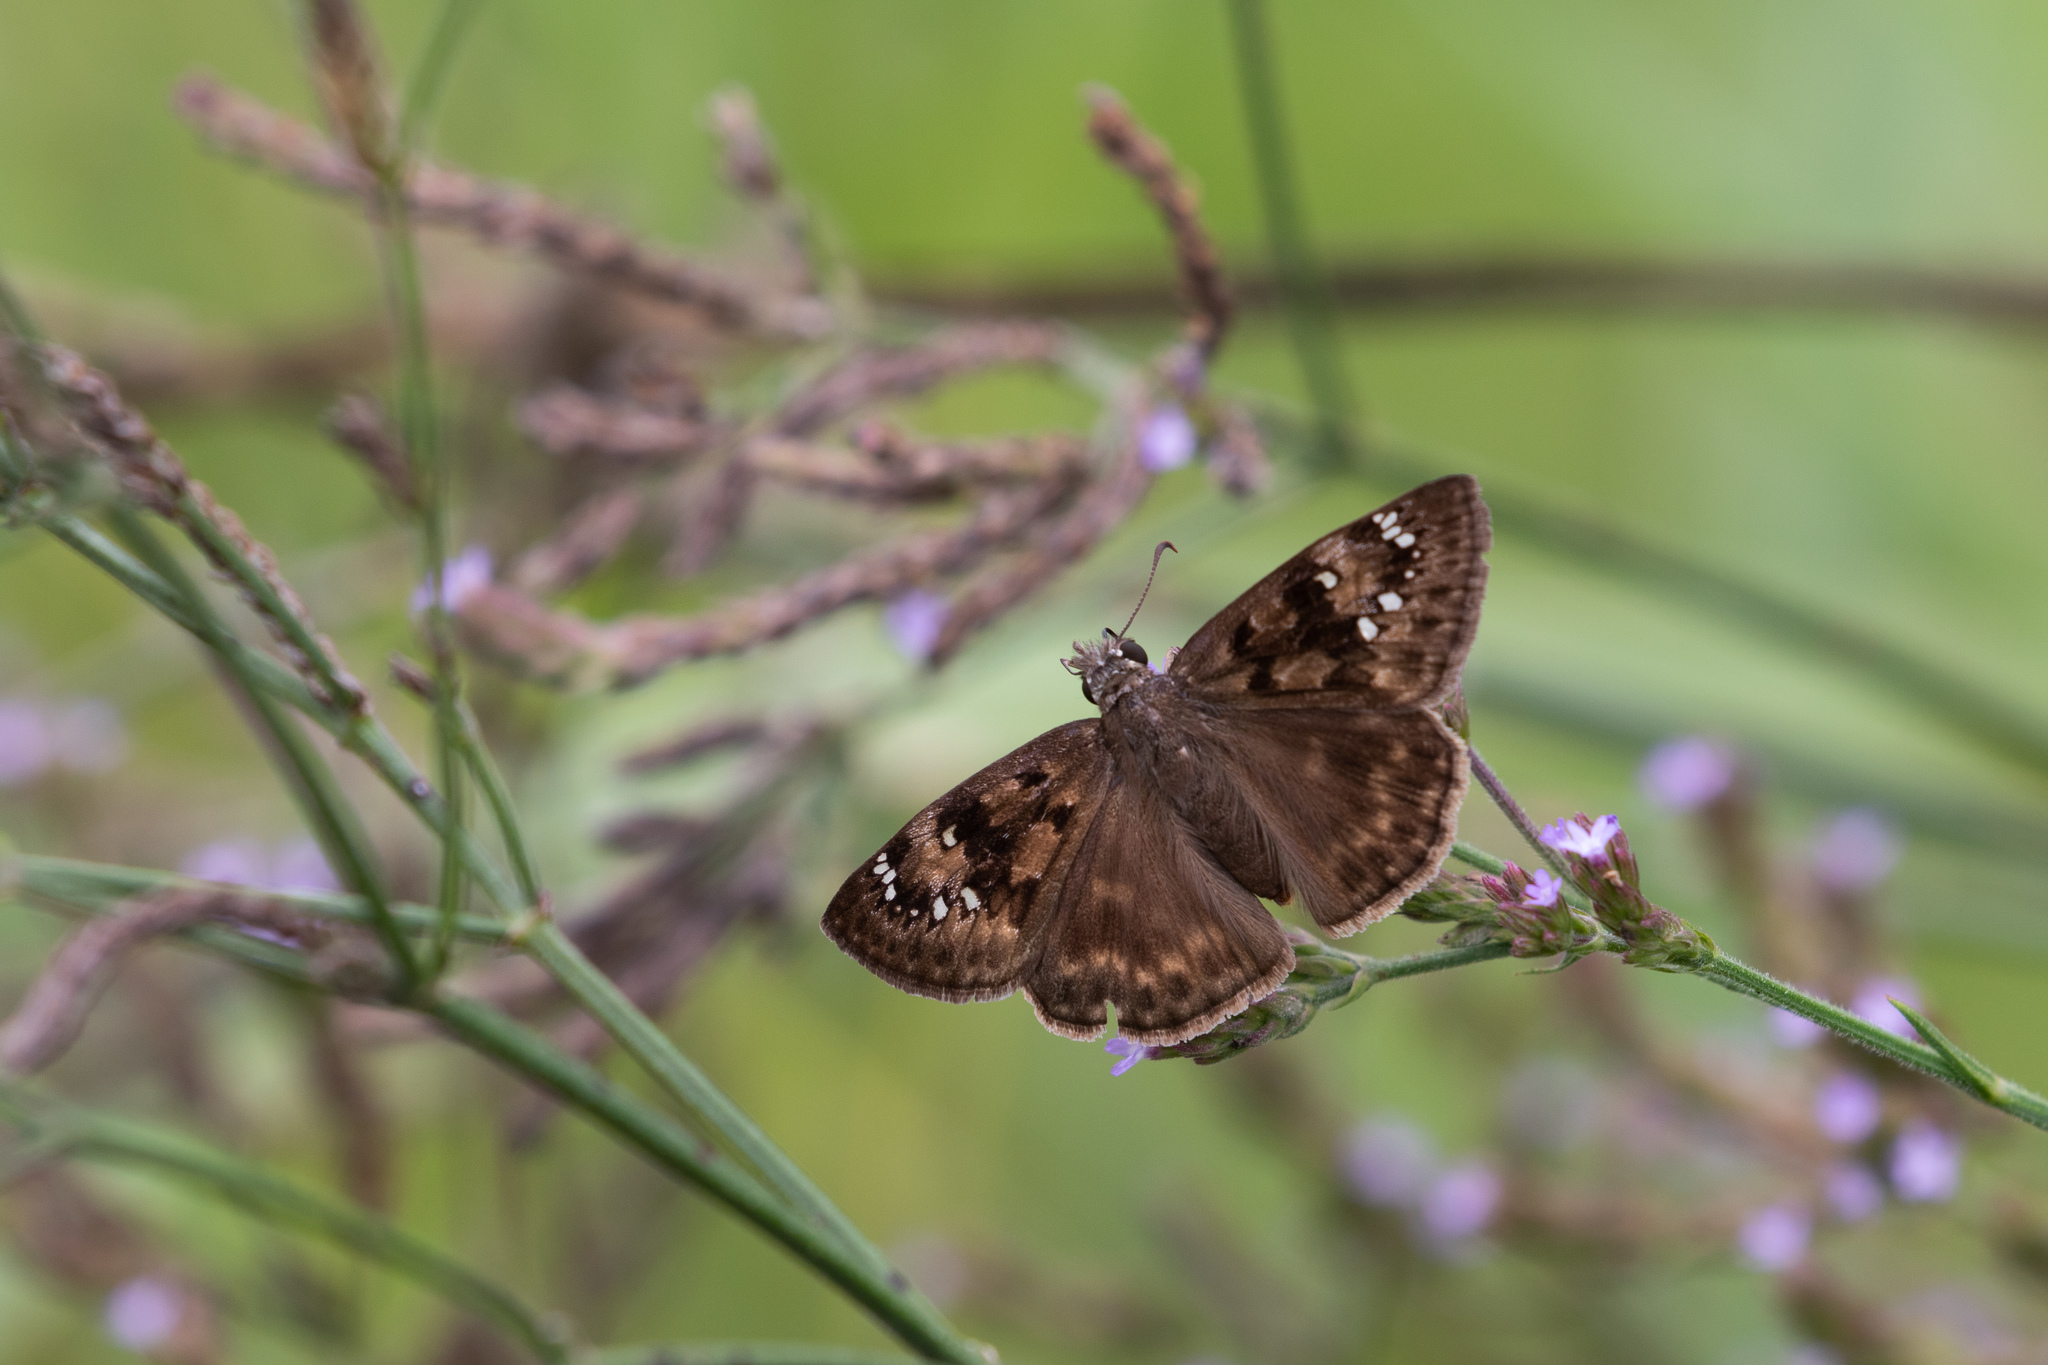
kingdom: Animalia
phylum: Arthropoda
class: Insecta
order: Lepidoptera
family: Hesperiidae
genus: Erynnis
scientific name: Erynnis horatius
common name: Horace's duskywing
